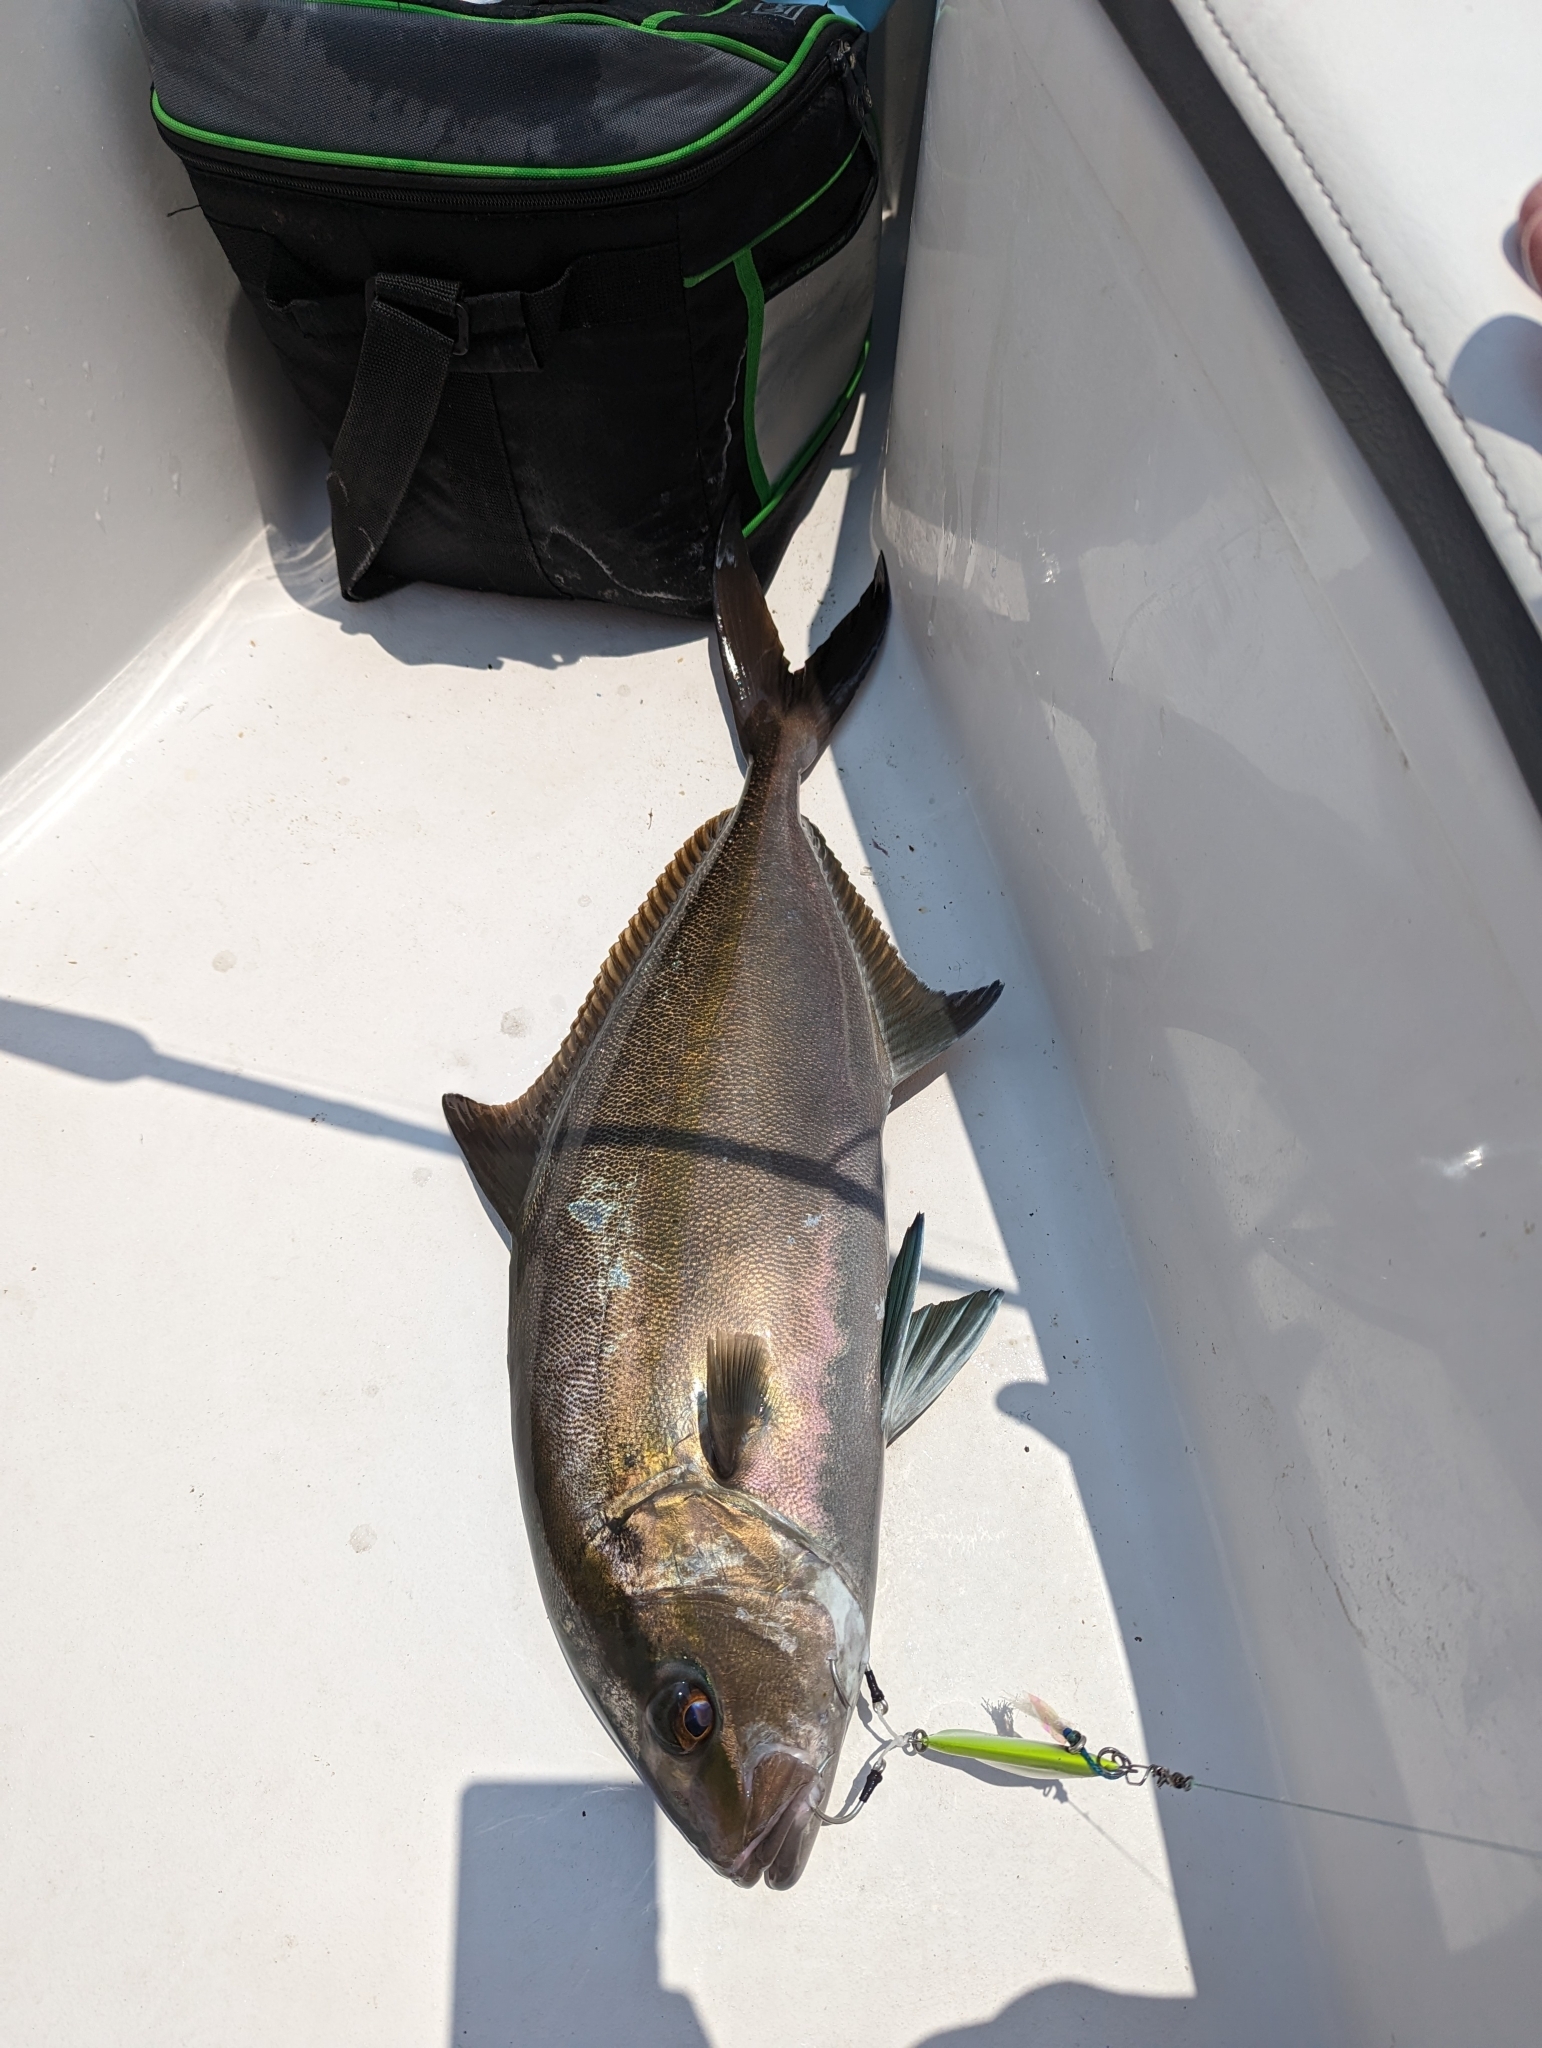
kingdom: Animalia
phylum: Chordata
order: Perciformes
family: Carangidae
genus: Seriola
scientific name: Seriola dumerili
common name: Greater amberjack
